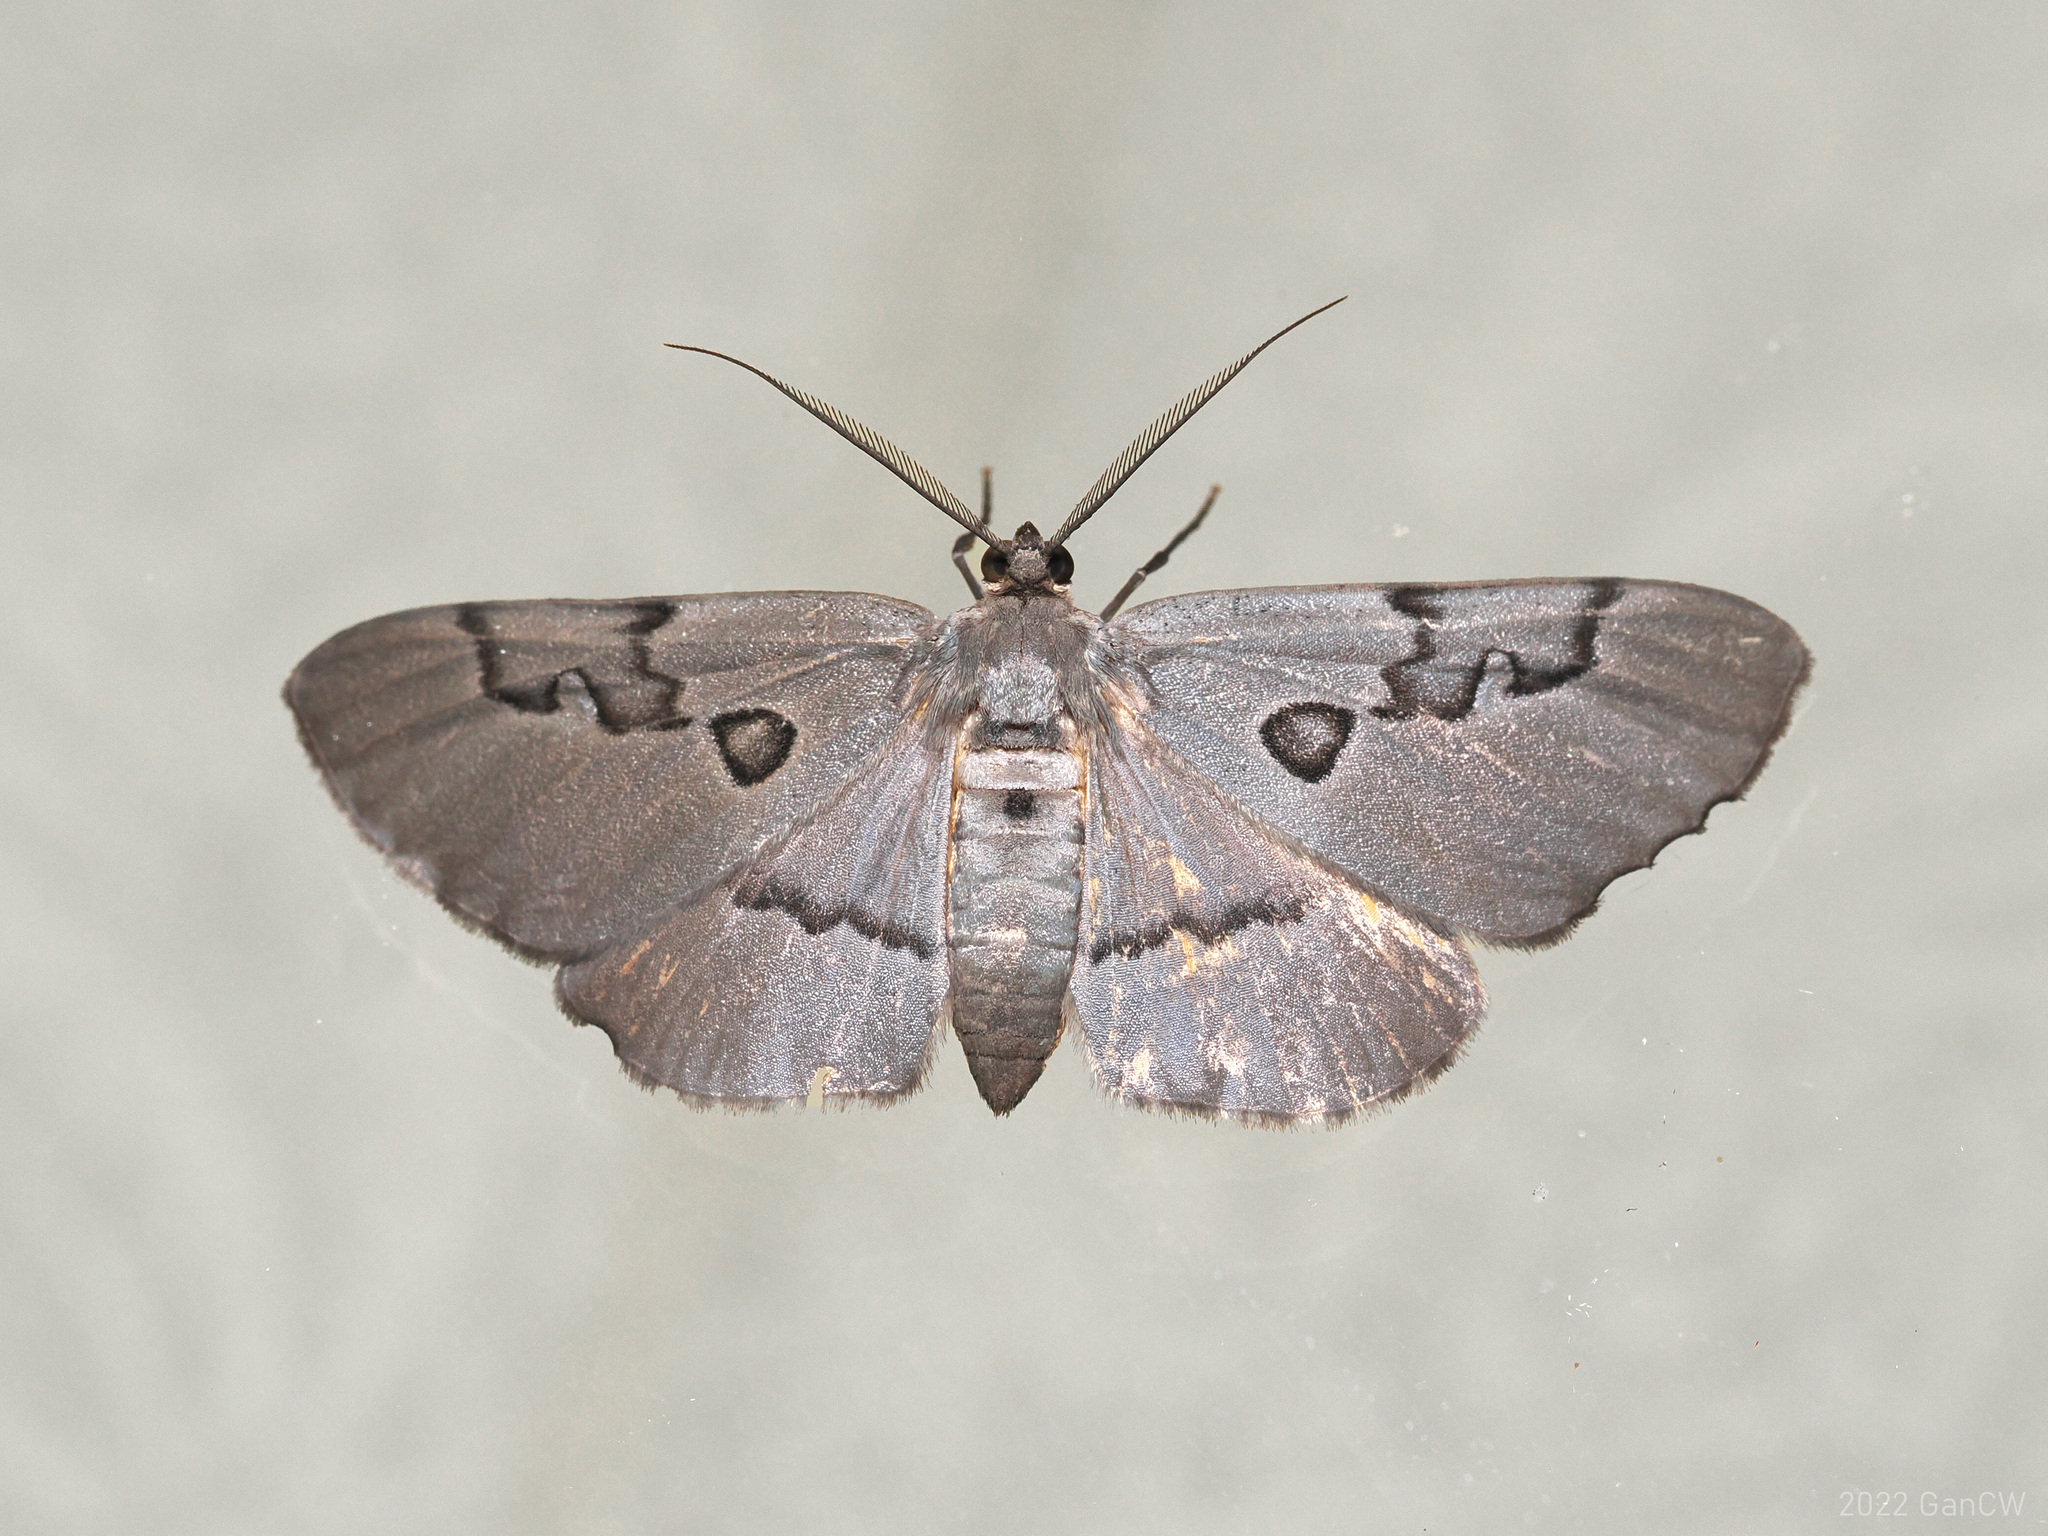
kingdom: Animalia
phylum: Arthropoda
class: Insecta
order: Lepidoptera
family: Geometridae
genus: Hypochrosis
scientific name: Hypochrosis sternaria
